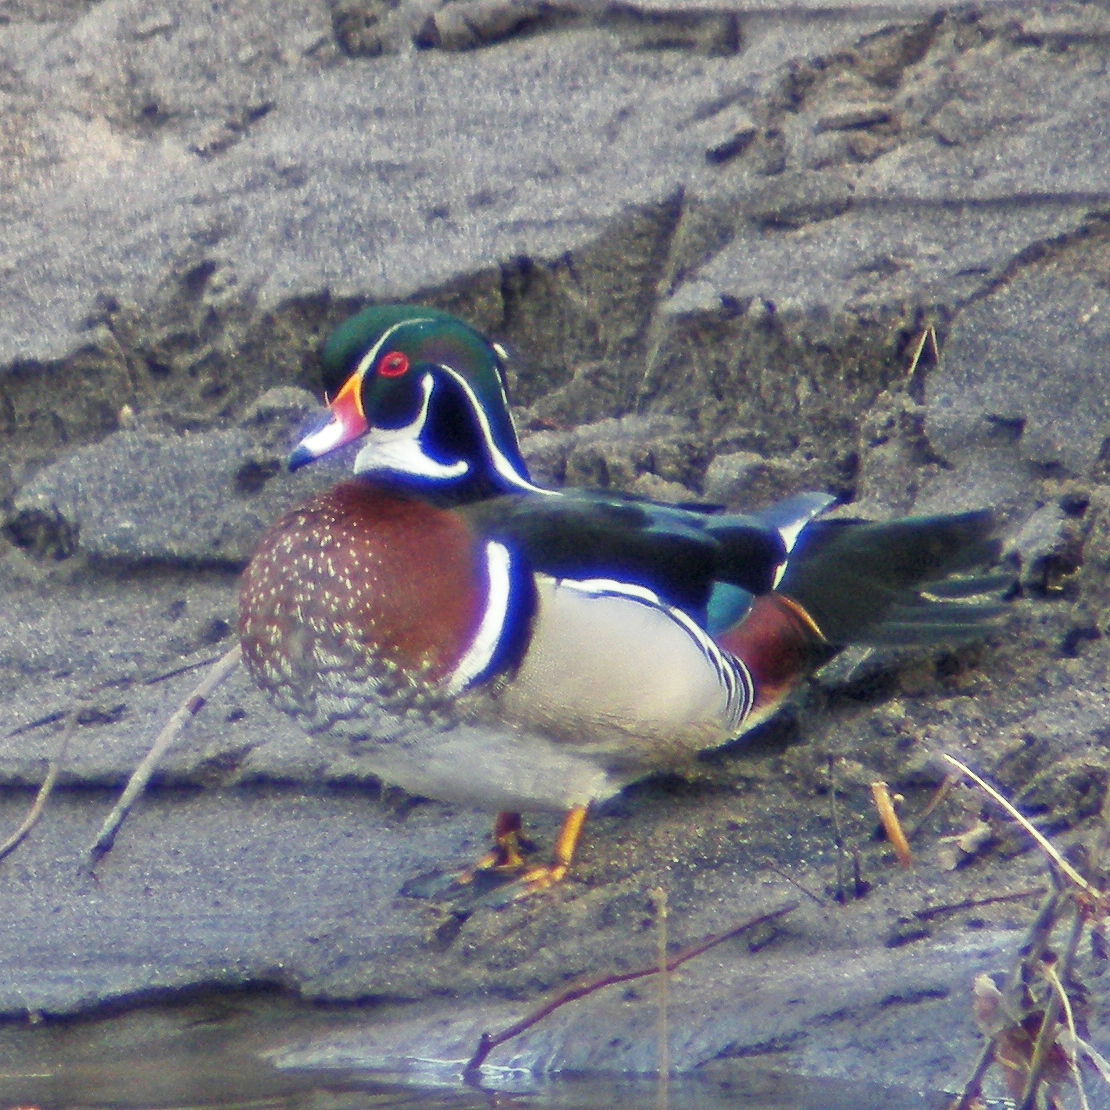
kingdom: Animalia
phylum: Chordata
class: Aves
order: Anseriformes
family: Anatidae
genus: Aix
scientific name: Aix sponsa
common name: Wood duck
